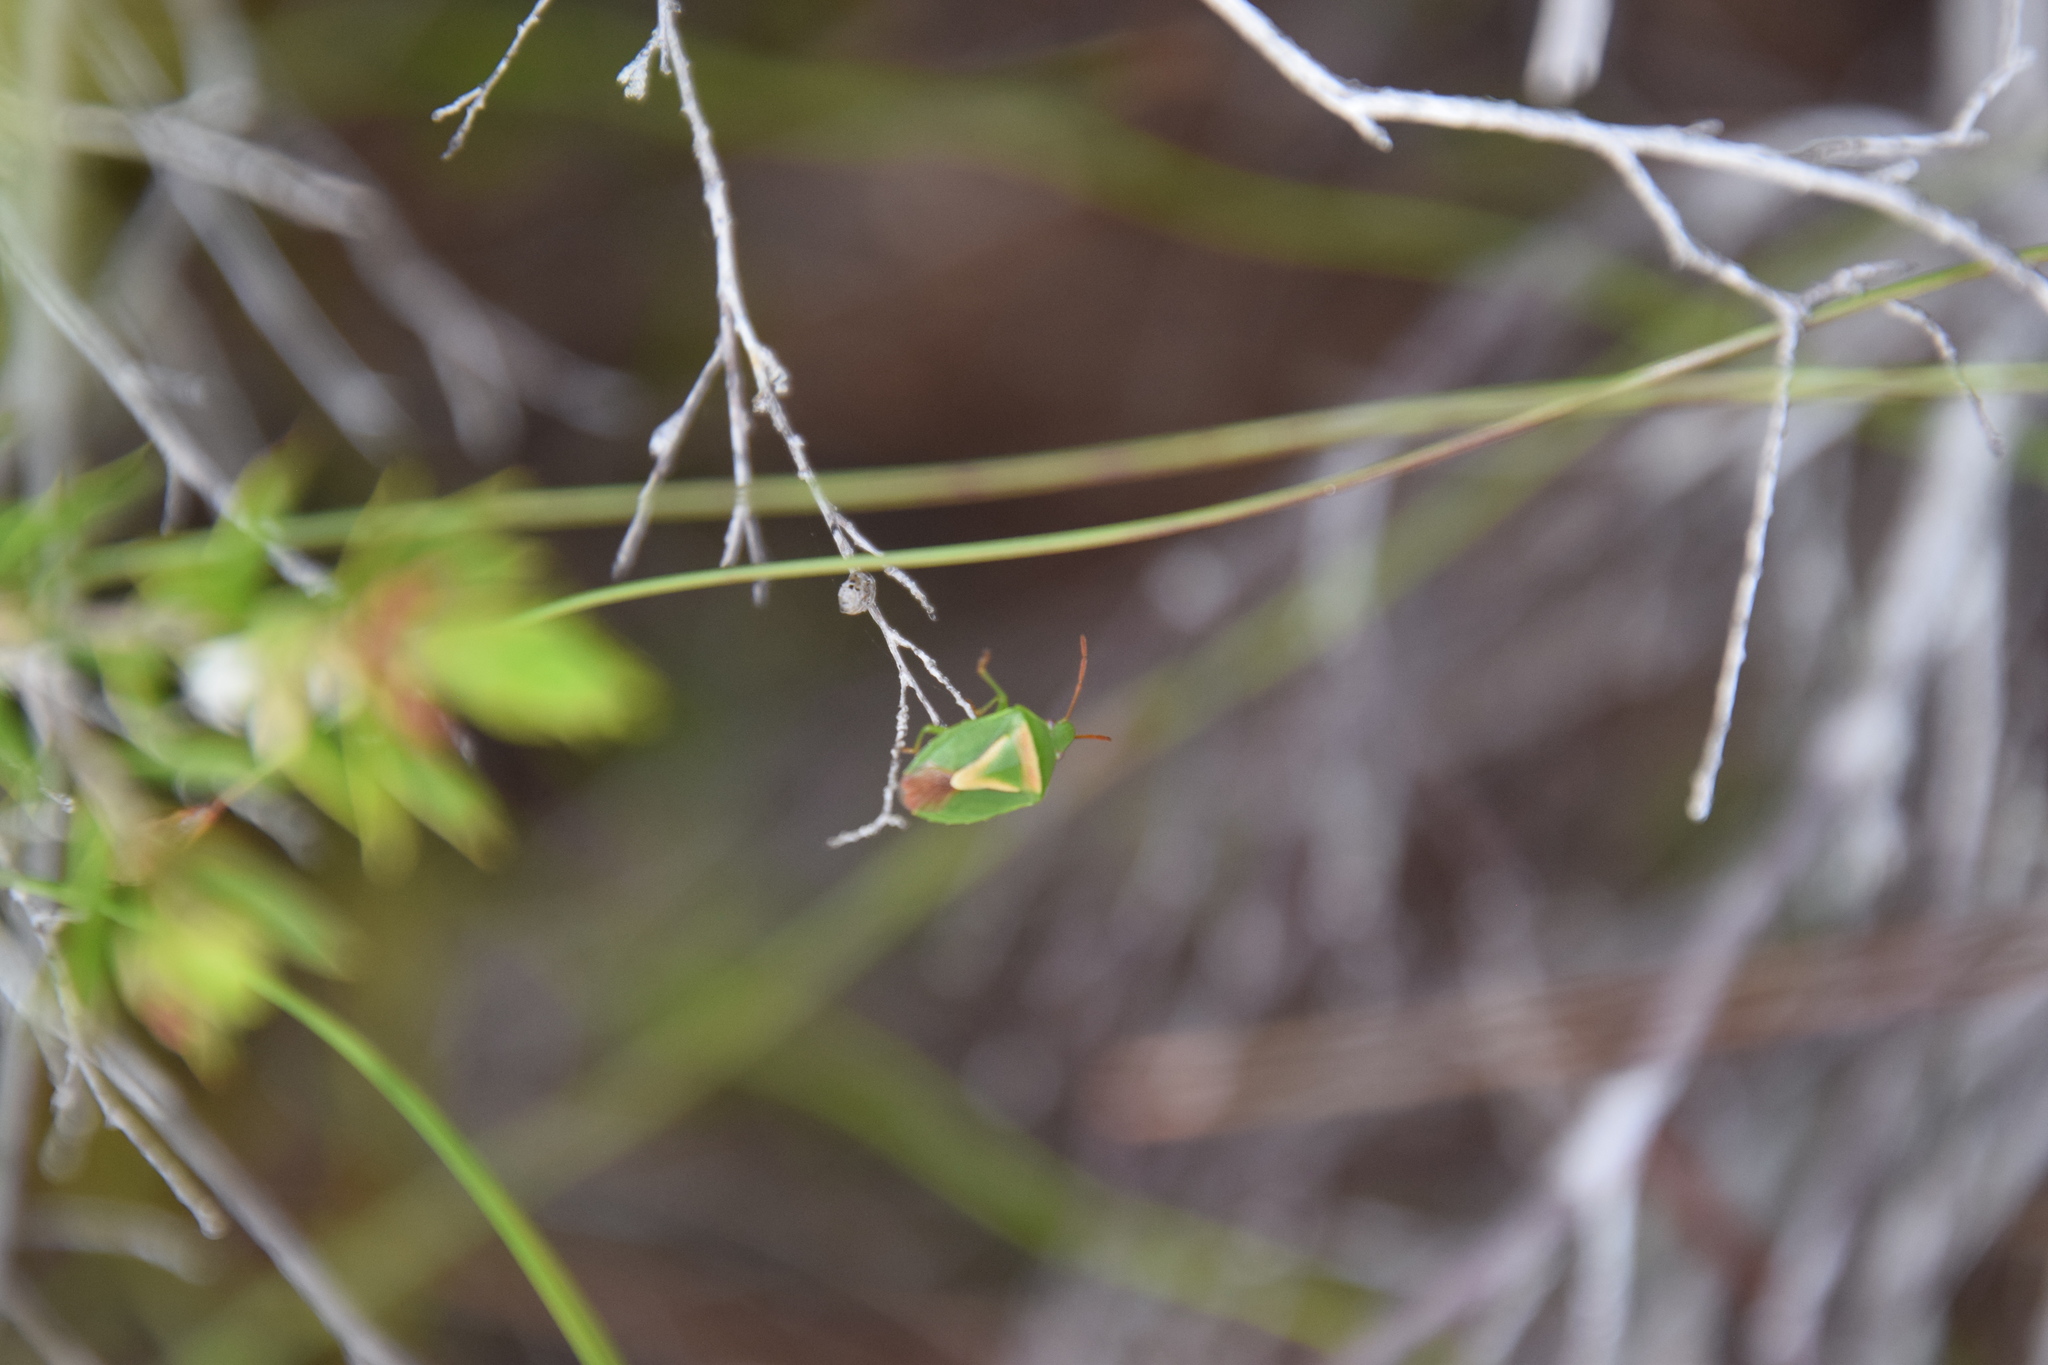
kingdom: Animalia
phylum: Arthropoda
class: Insecta
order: Hemiptera
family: Pentatomidae
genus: Ocirrhoe
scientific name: Ocirrhoe
